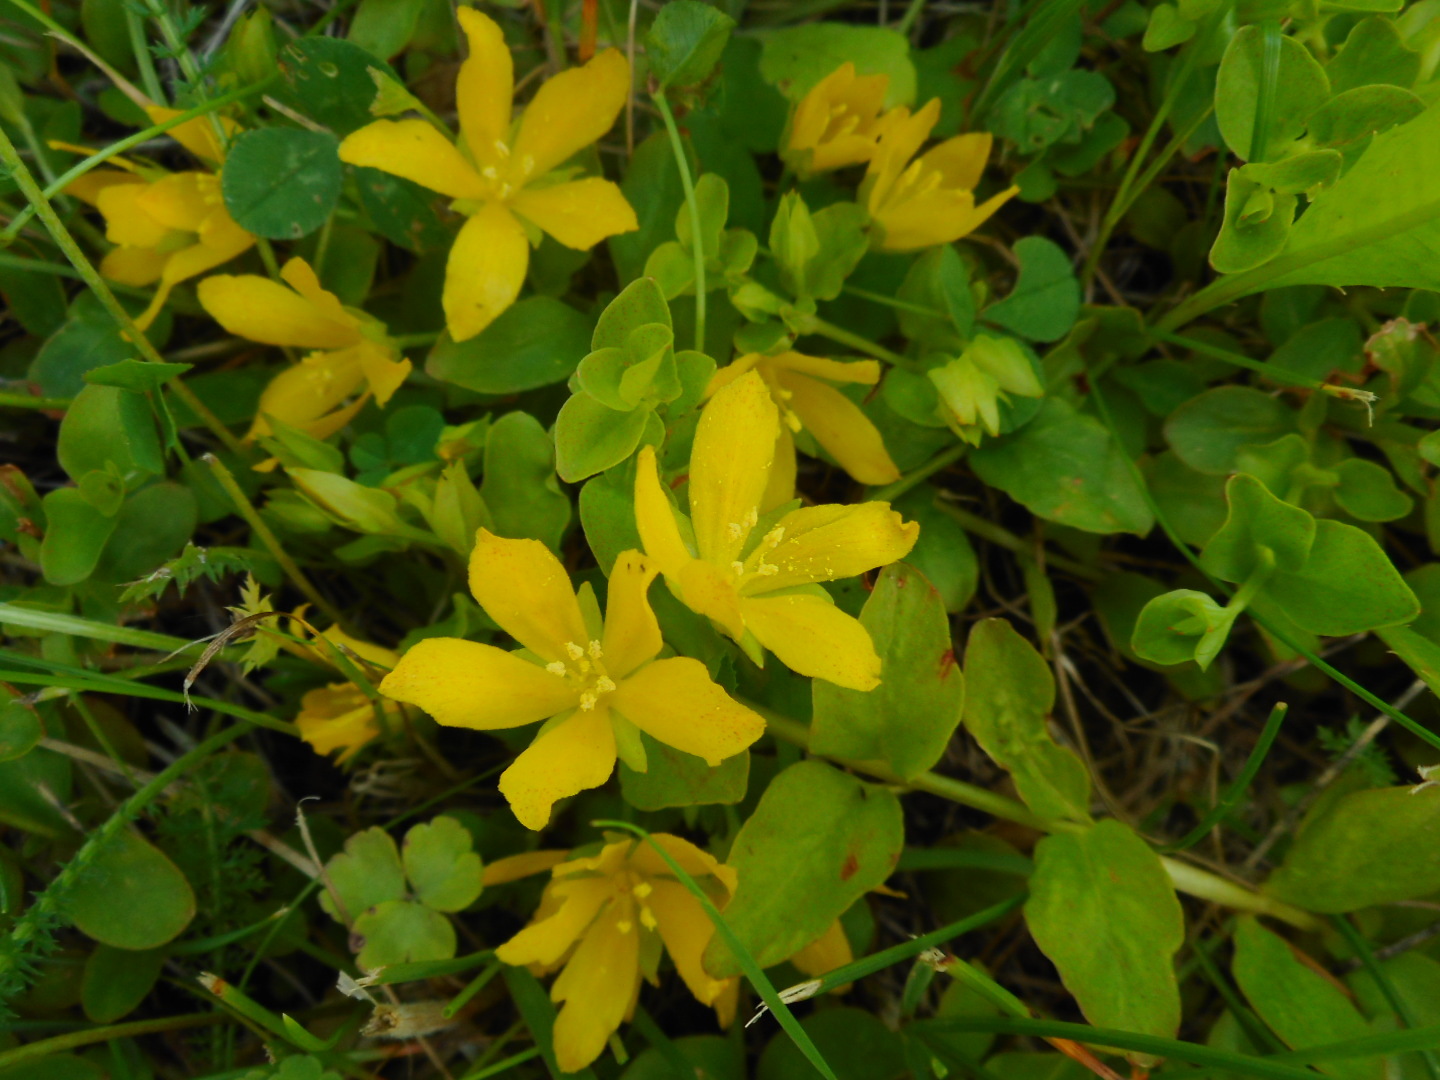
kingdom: Plantae
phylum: Tracheophyta
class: Magnoliopsida
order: Ericales
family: Primulaceae
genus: Lysimachia
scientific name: Lysimachia nummularia
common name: Moneywort
